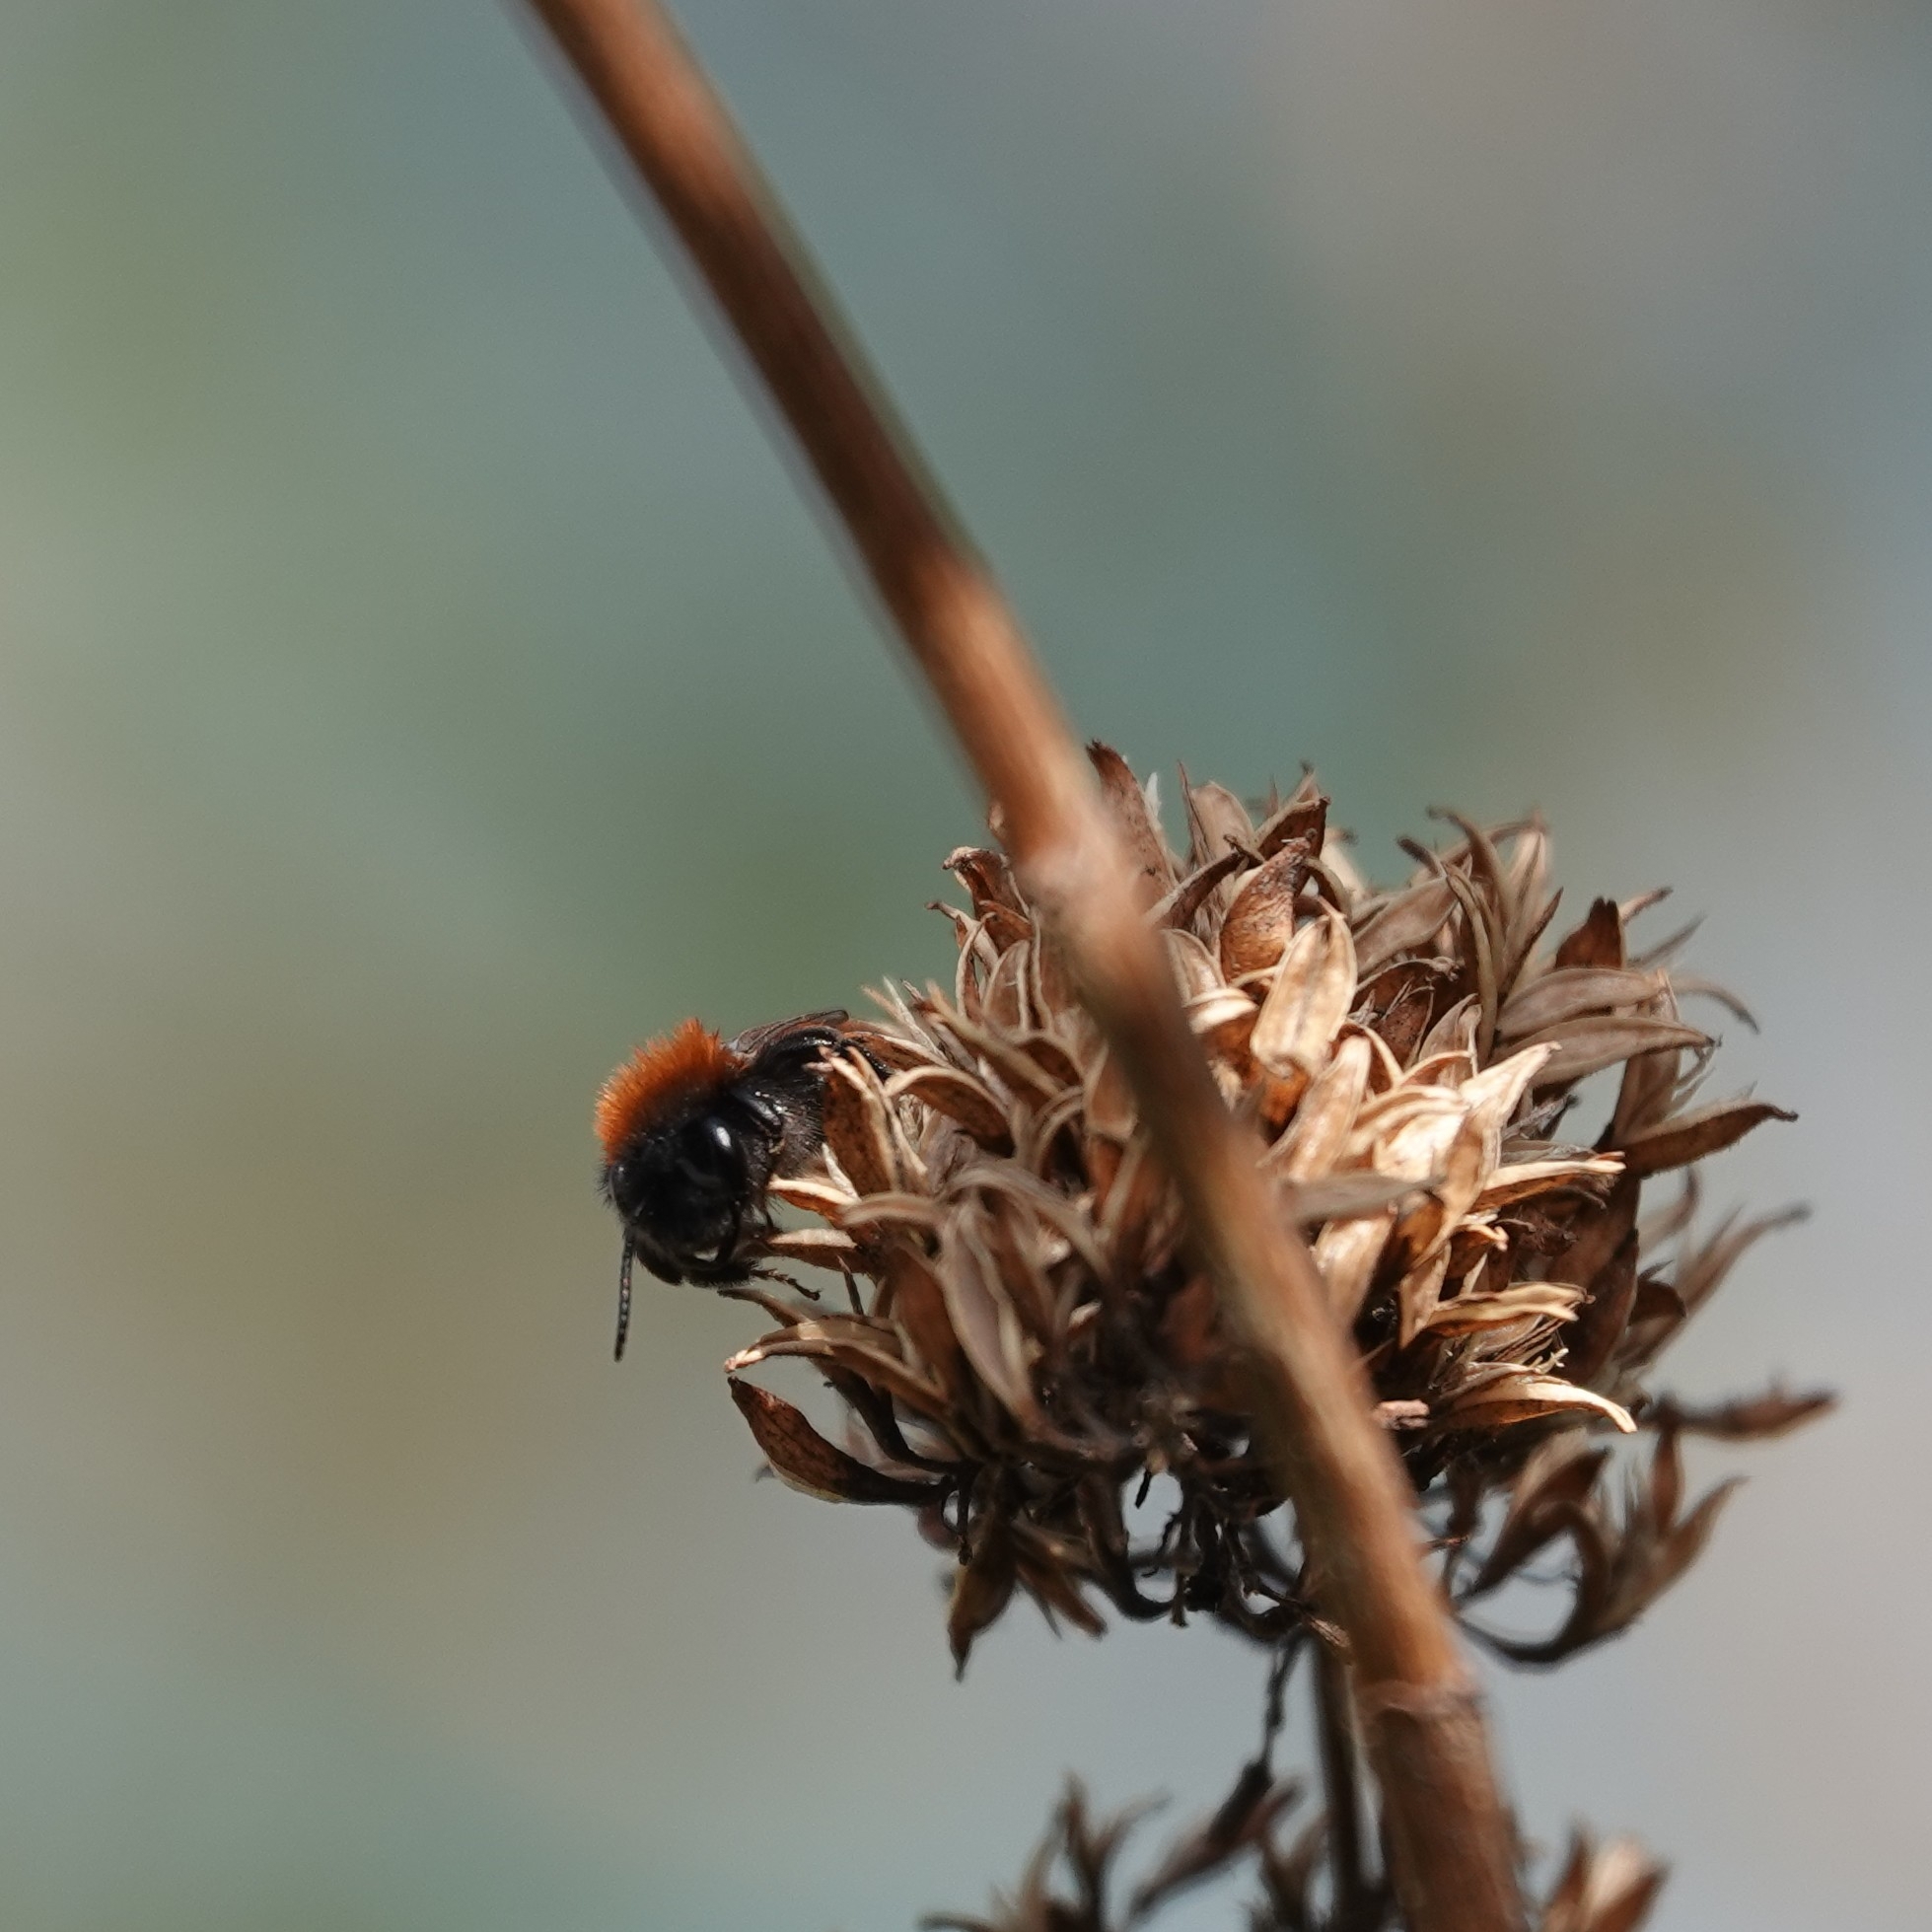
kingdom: Animalia
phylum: Arthropoda
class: Insecta
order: Hymenoptera
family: Andrenidae
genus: Andrena
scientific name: Andrena fulva
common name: Tawny mining bee
